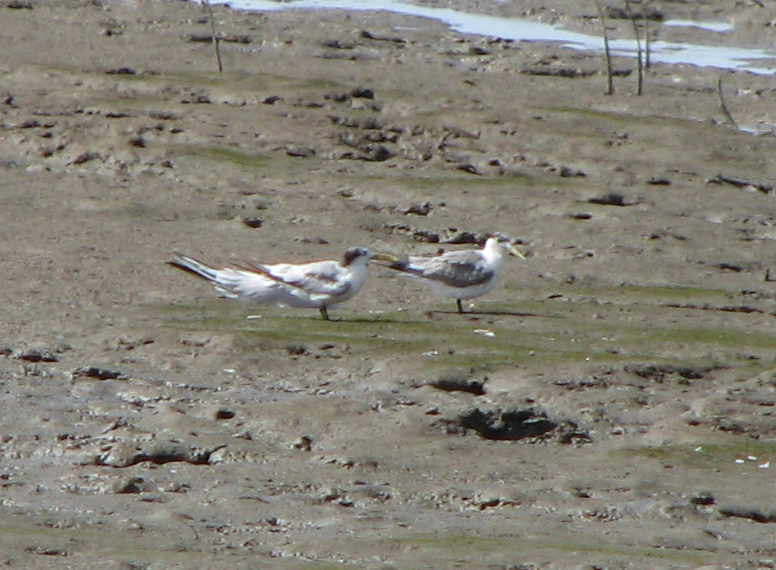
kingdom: Animalia
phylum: Chordata
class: Aves
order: Charadriiformes
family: Laridae
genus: Thalasseus
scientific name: Thalasseus bergii
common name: Greater crested tern
